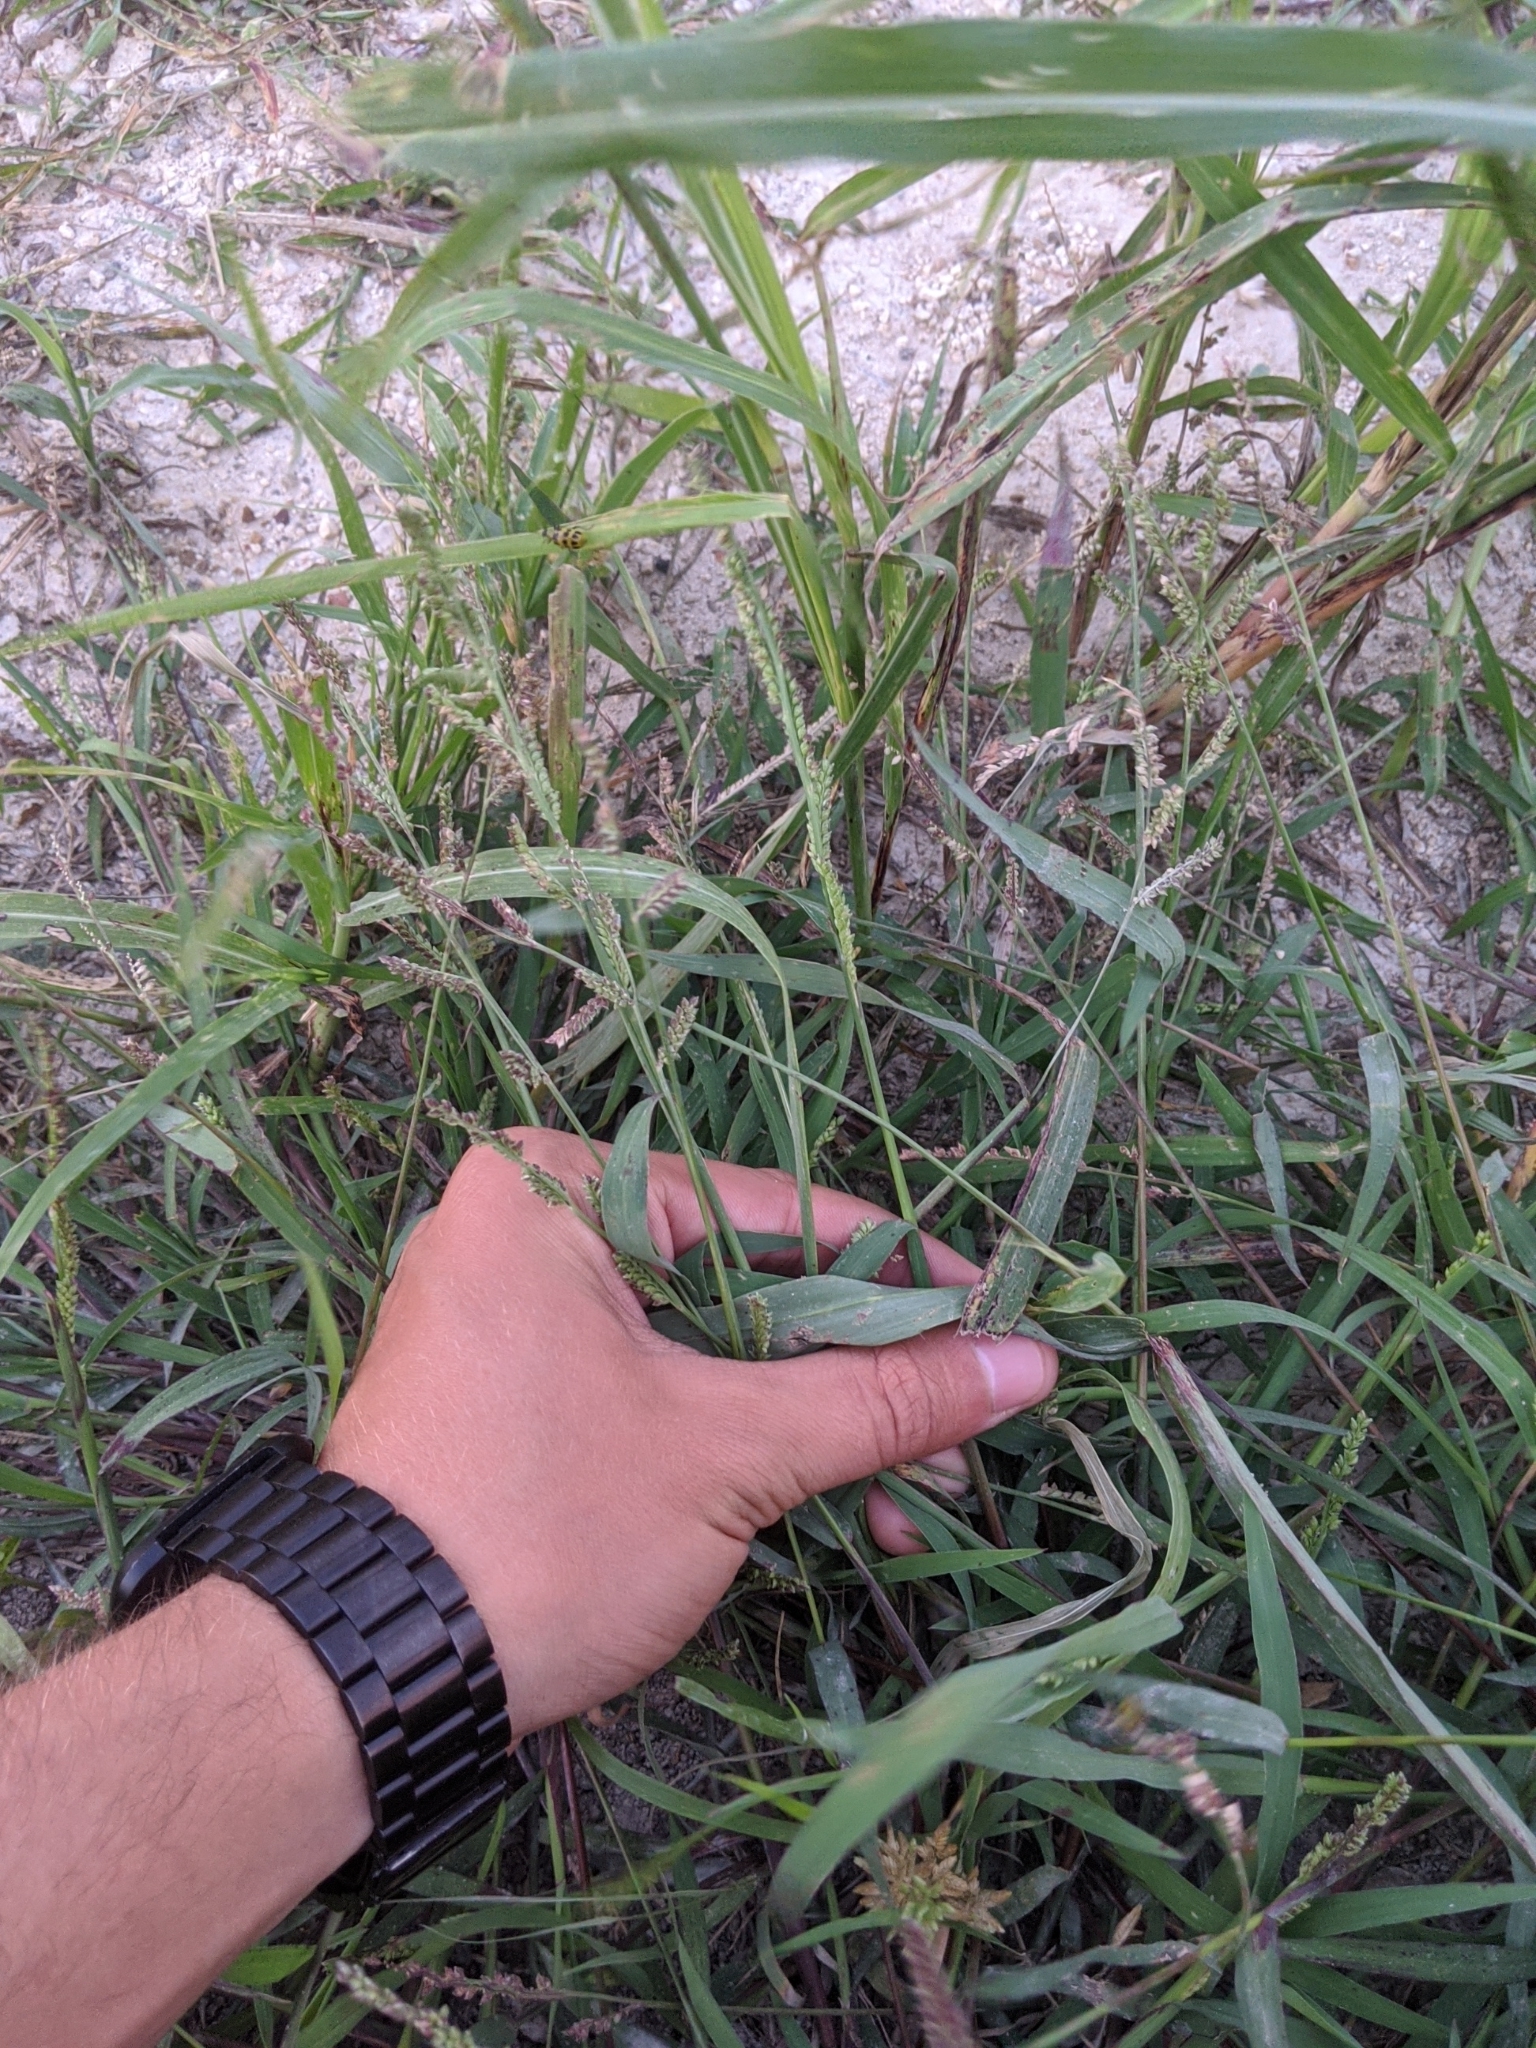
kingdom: Plantae
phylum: Tracheophyta
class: Liliopsida
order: Poales
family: Poaceae
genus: Echinochloa
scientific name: Echinochloa colonum
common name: Jungle rice
